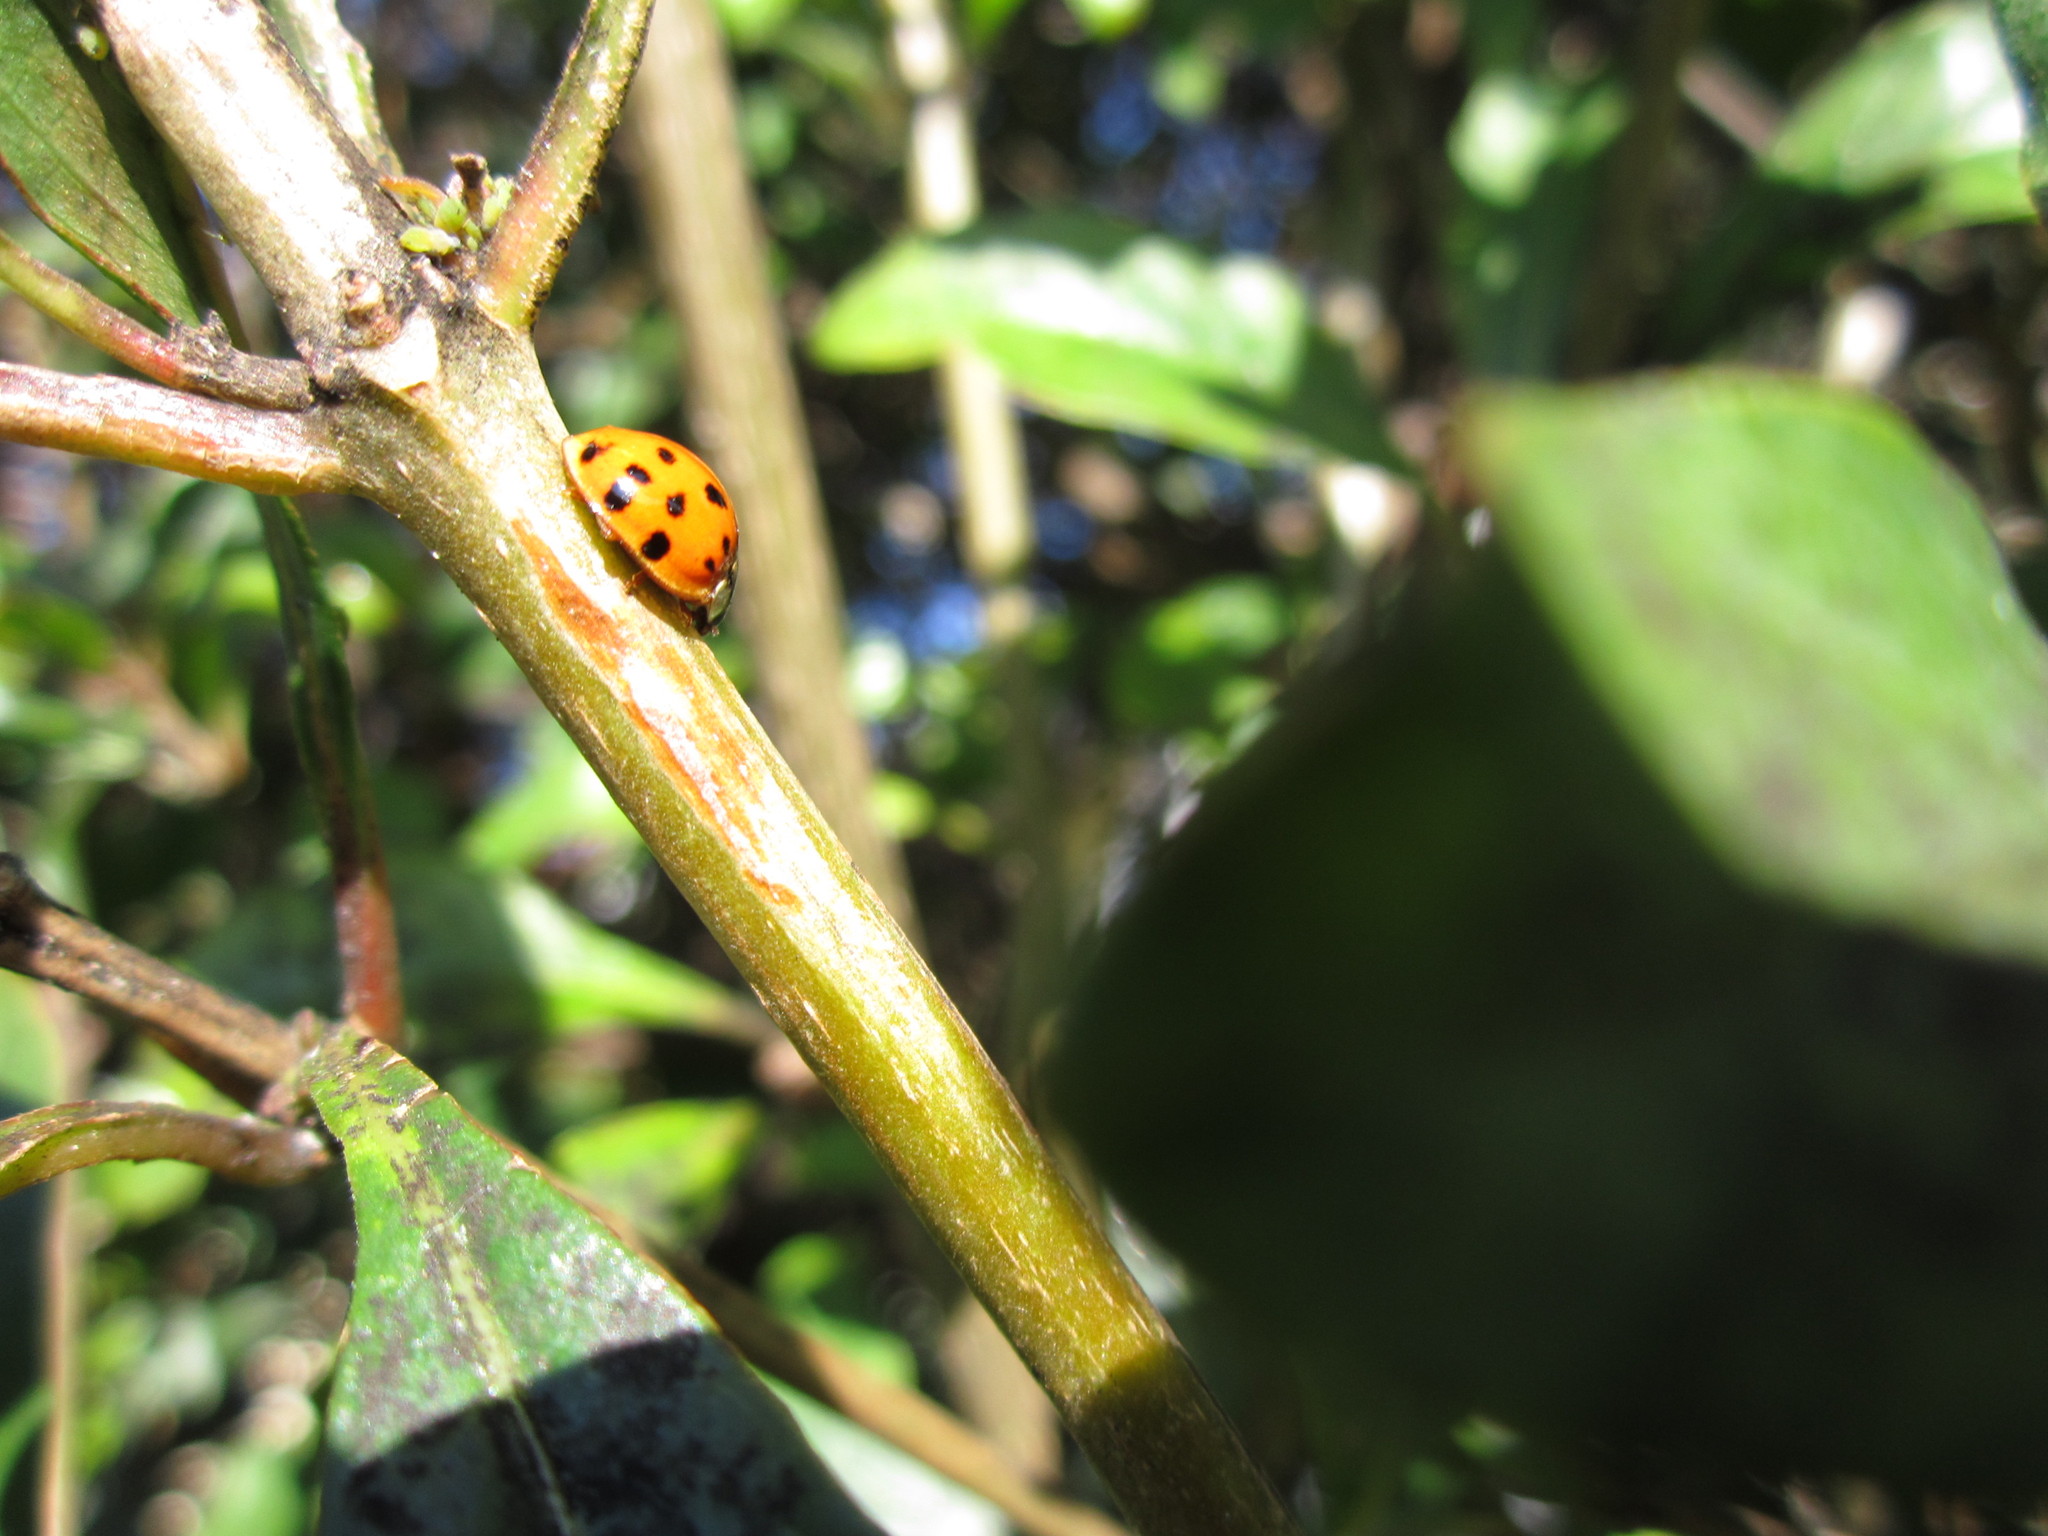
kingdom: Animalia
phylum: Arthropoda
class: Insecta
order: Coleoptera
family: Coccinellidae
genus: Harmonia
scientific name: Harmonia axyridis
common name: Harlequin ladybird
